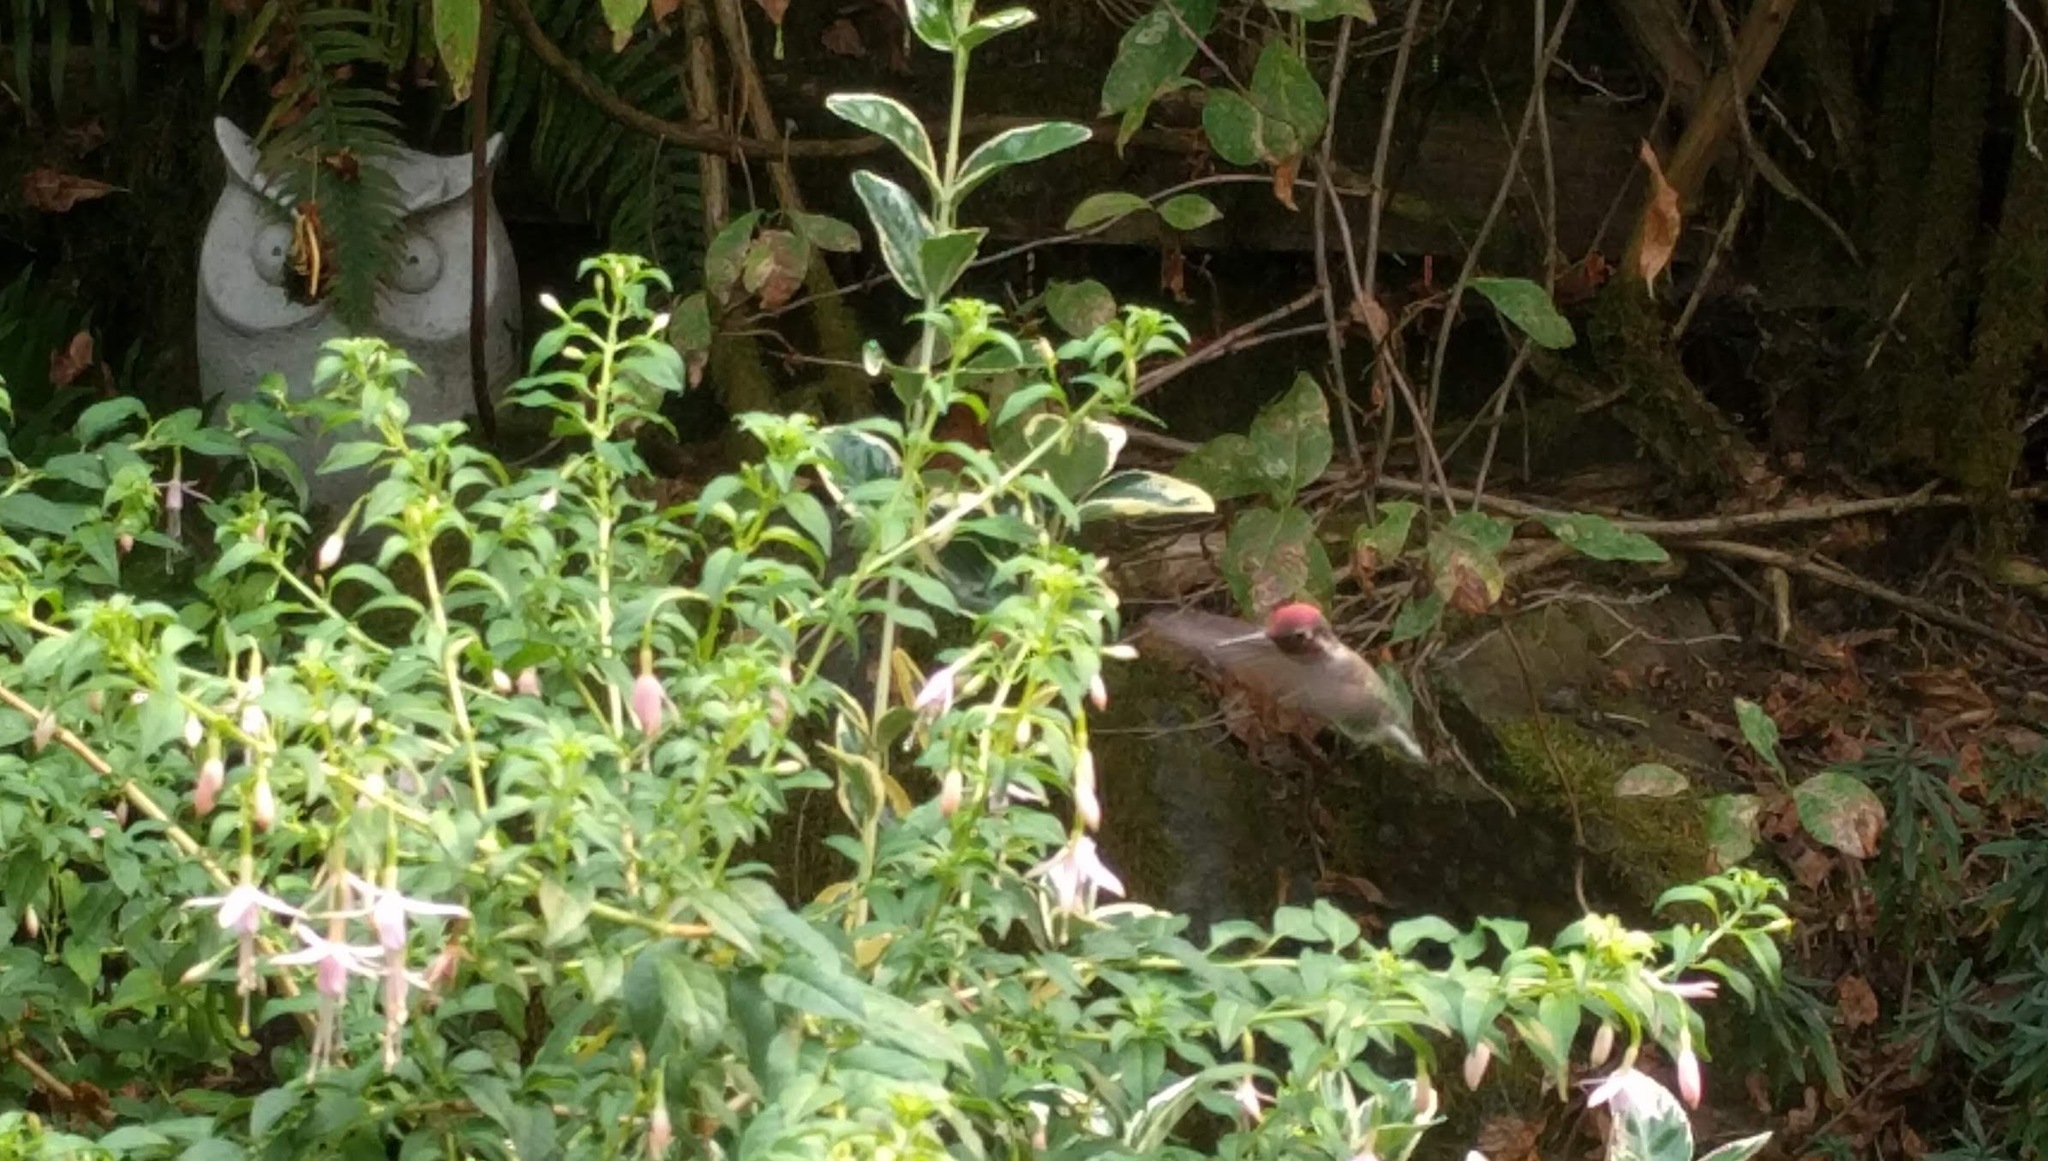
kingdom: Animalia
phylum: Chordata
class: Aves
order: Apodiformes
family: Trochilidae
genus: Calypte
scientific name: Calypte anna
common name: Anna's hummingbird
